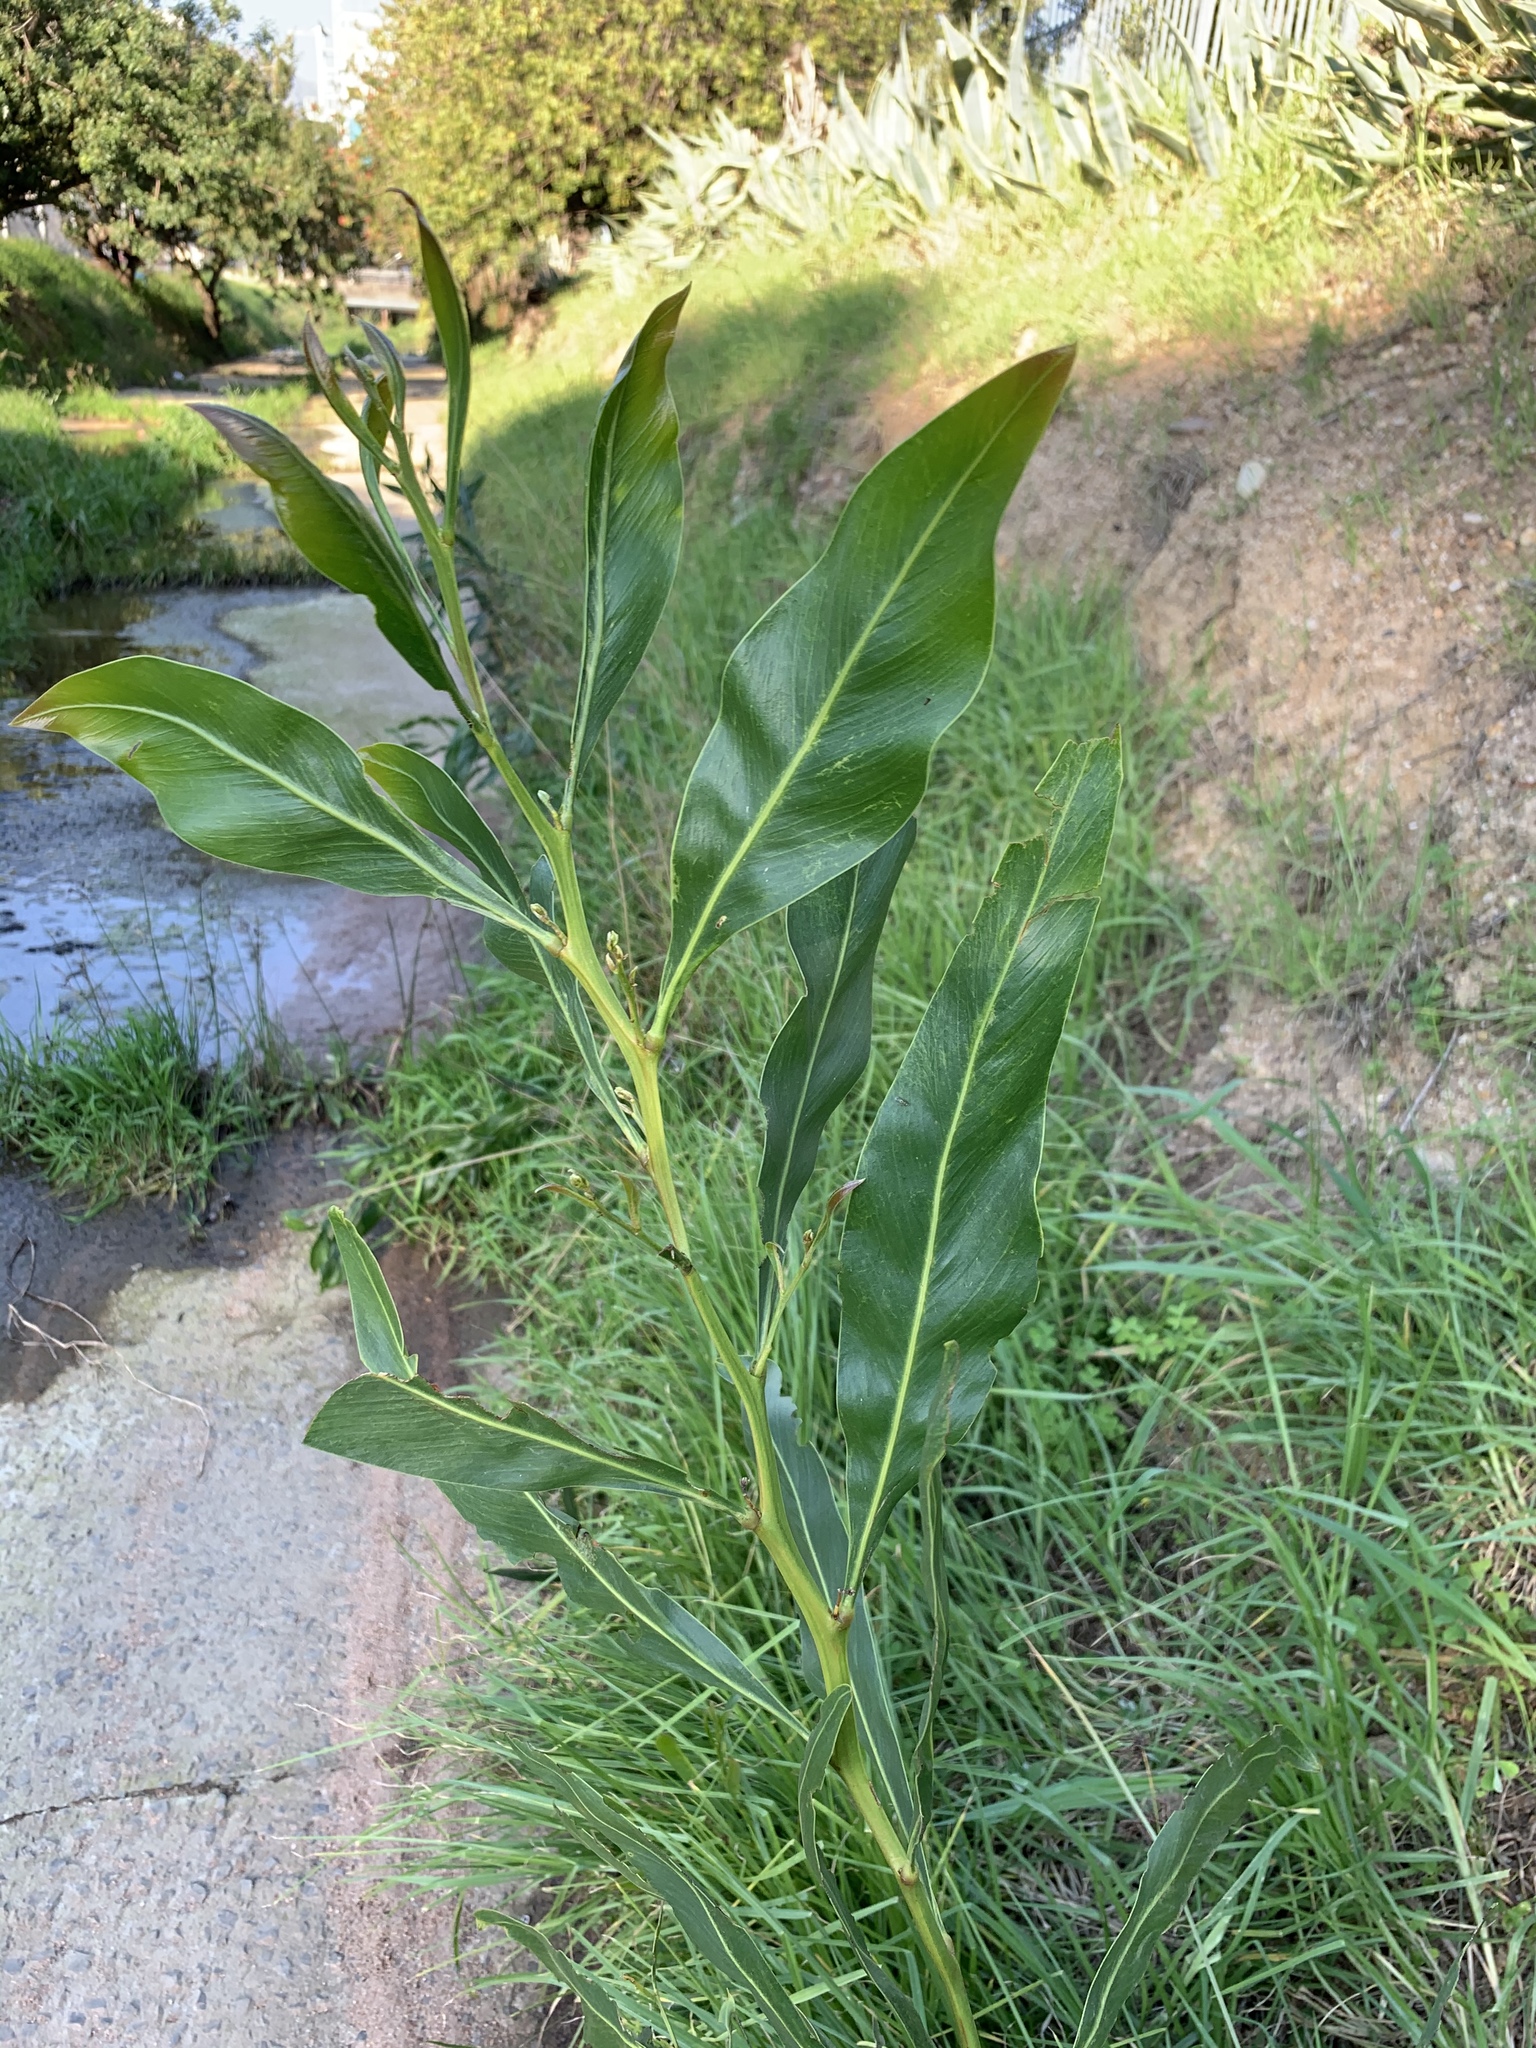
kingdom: Plantae
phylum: Tracheophyta
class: Magnoliopsida
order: Fabales
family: Fabaceae
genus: Acacia
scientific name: Acacia saligna
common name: Orange wattle
